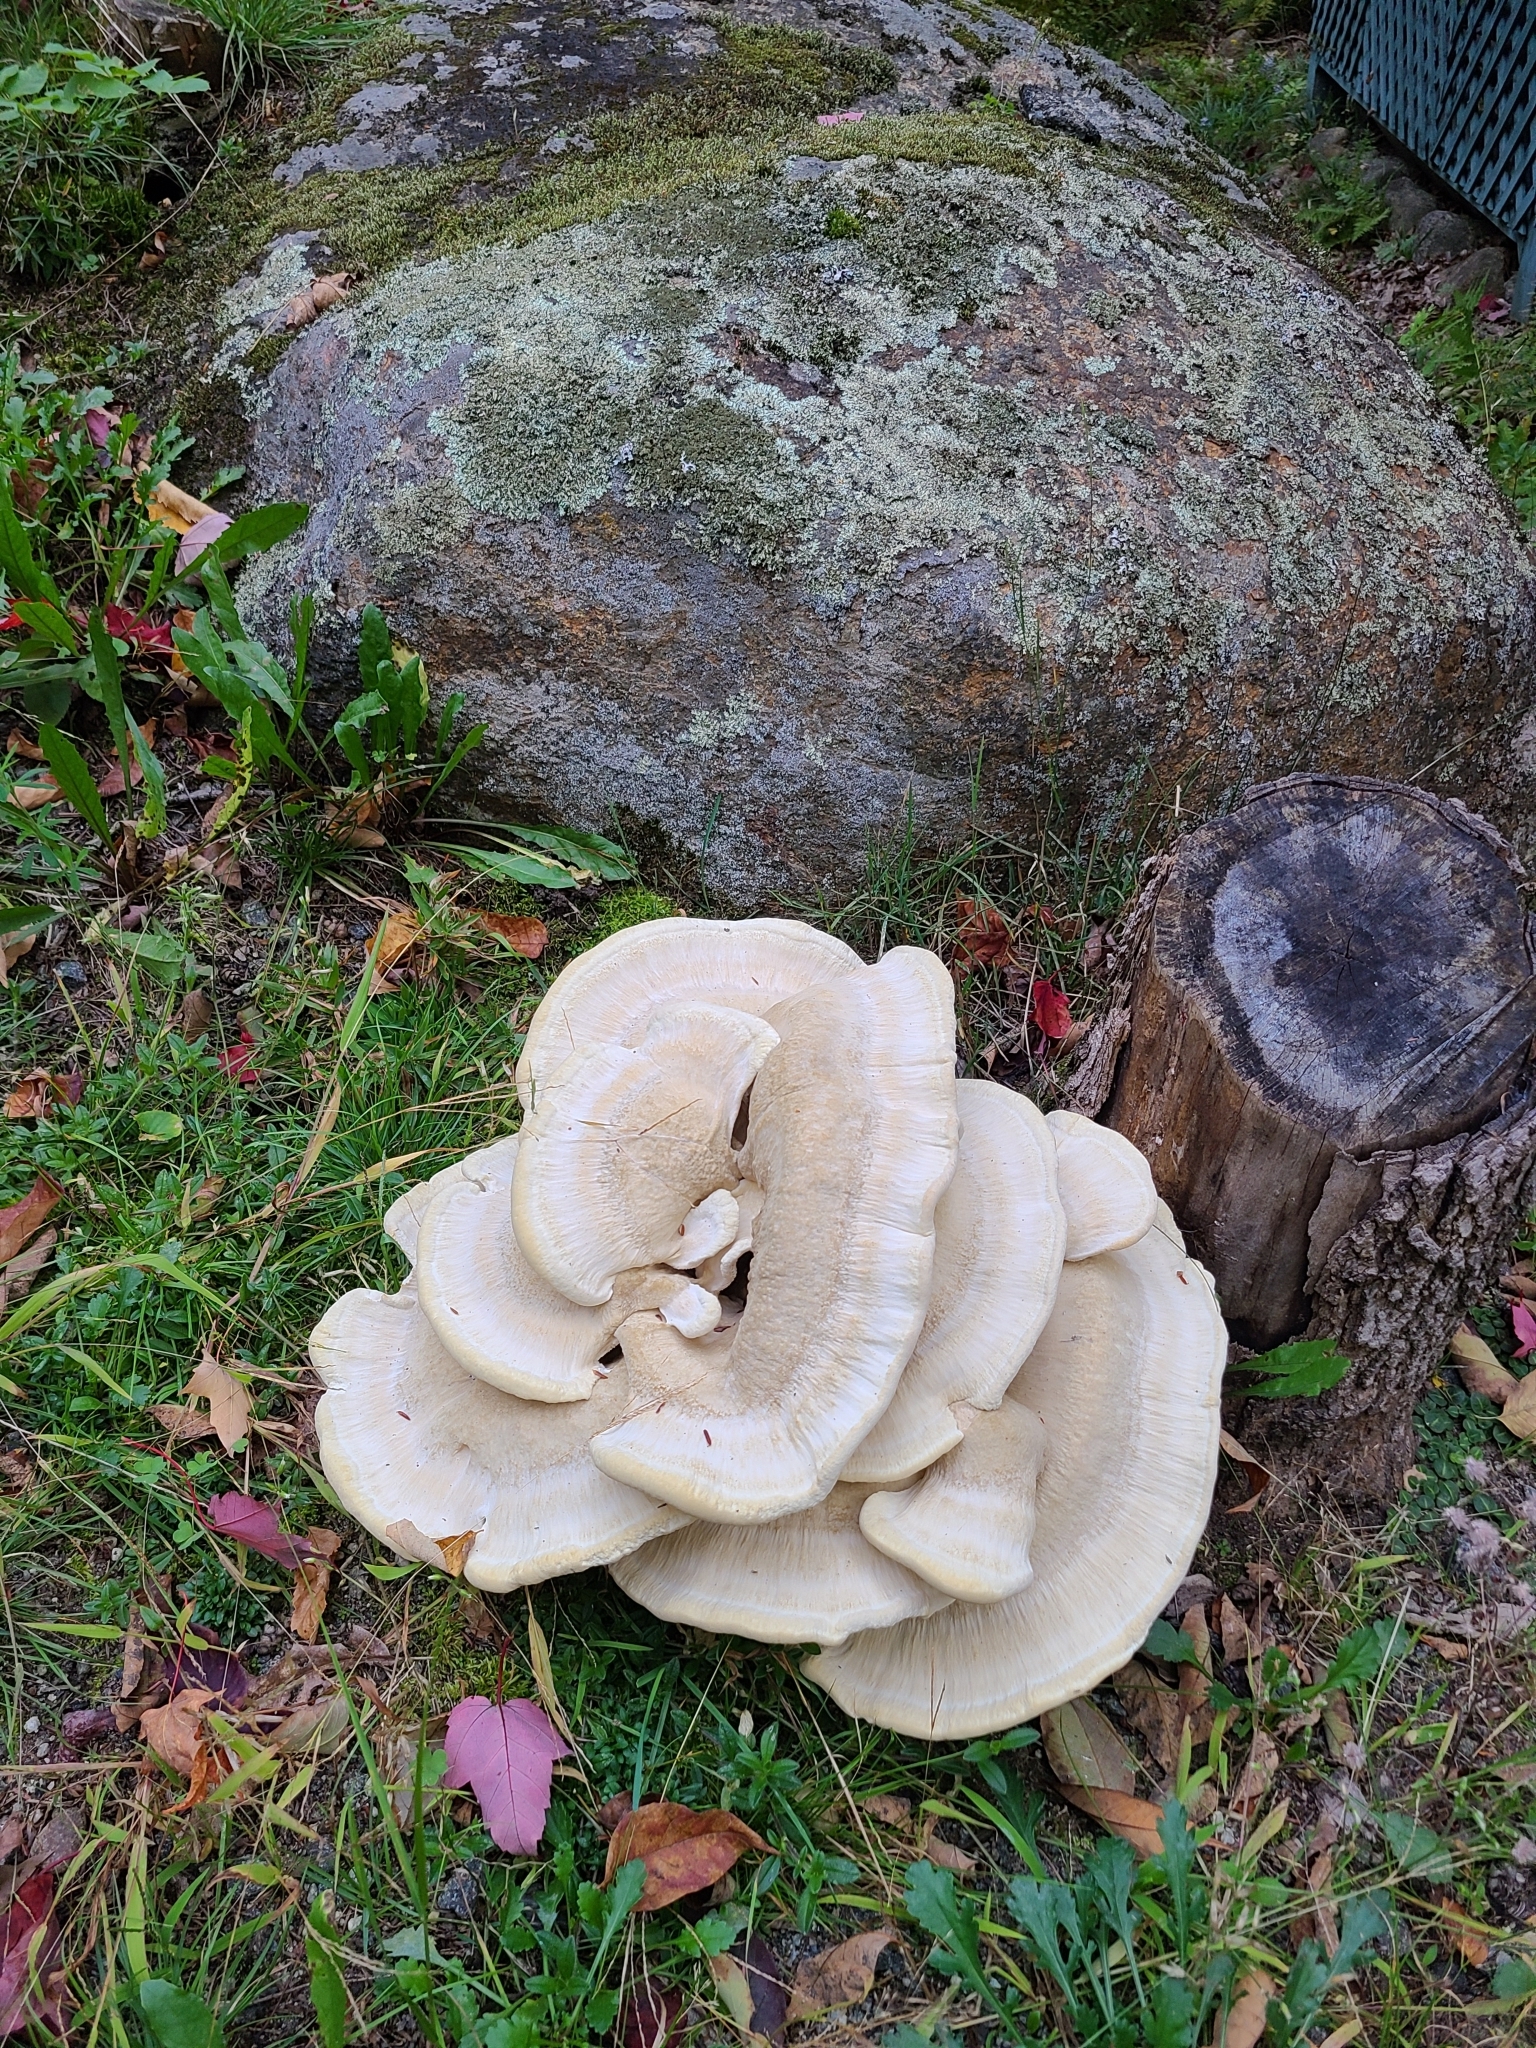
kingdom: Fungi
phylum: Basidiomycota
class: Agaricomycetes
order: Russulales
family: Bondarzewiaceae
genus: Bondarzewia
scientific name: Bondarzewia berkeleyi
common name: Berkeley's polypore
